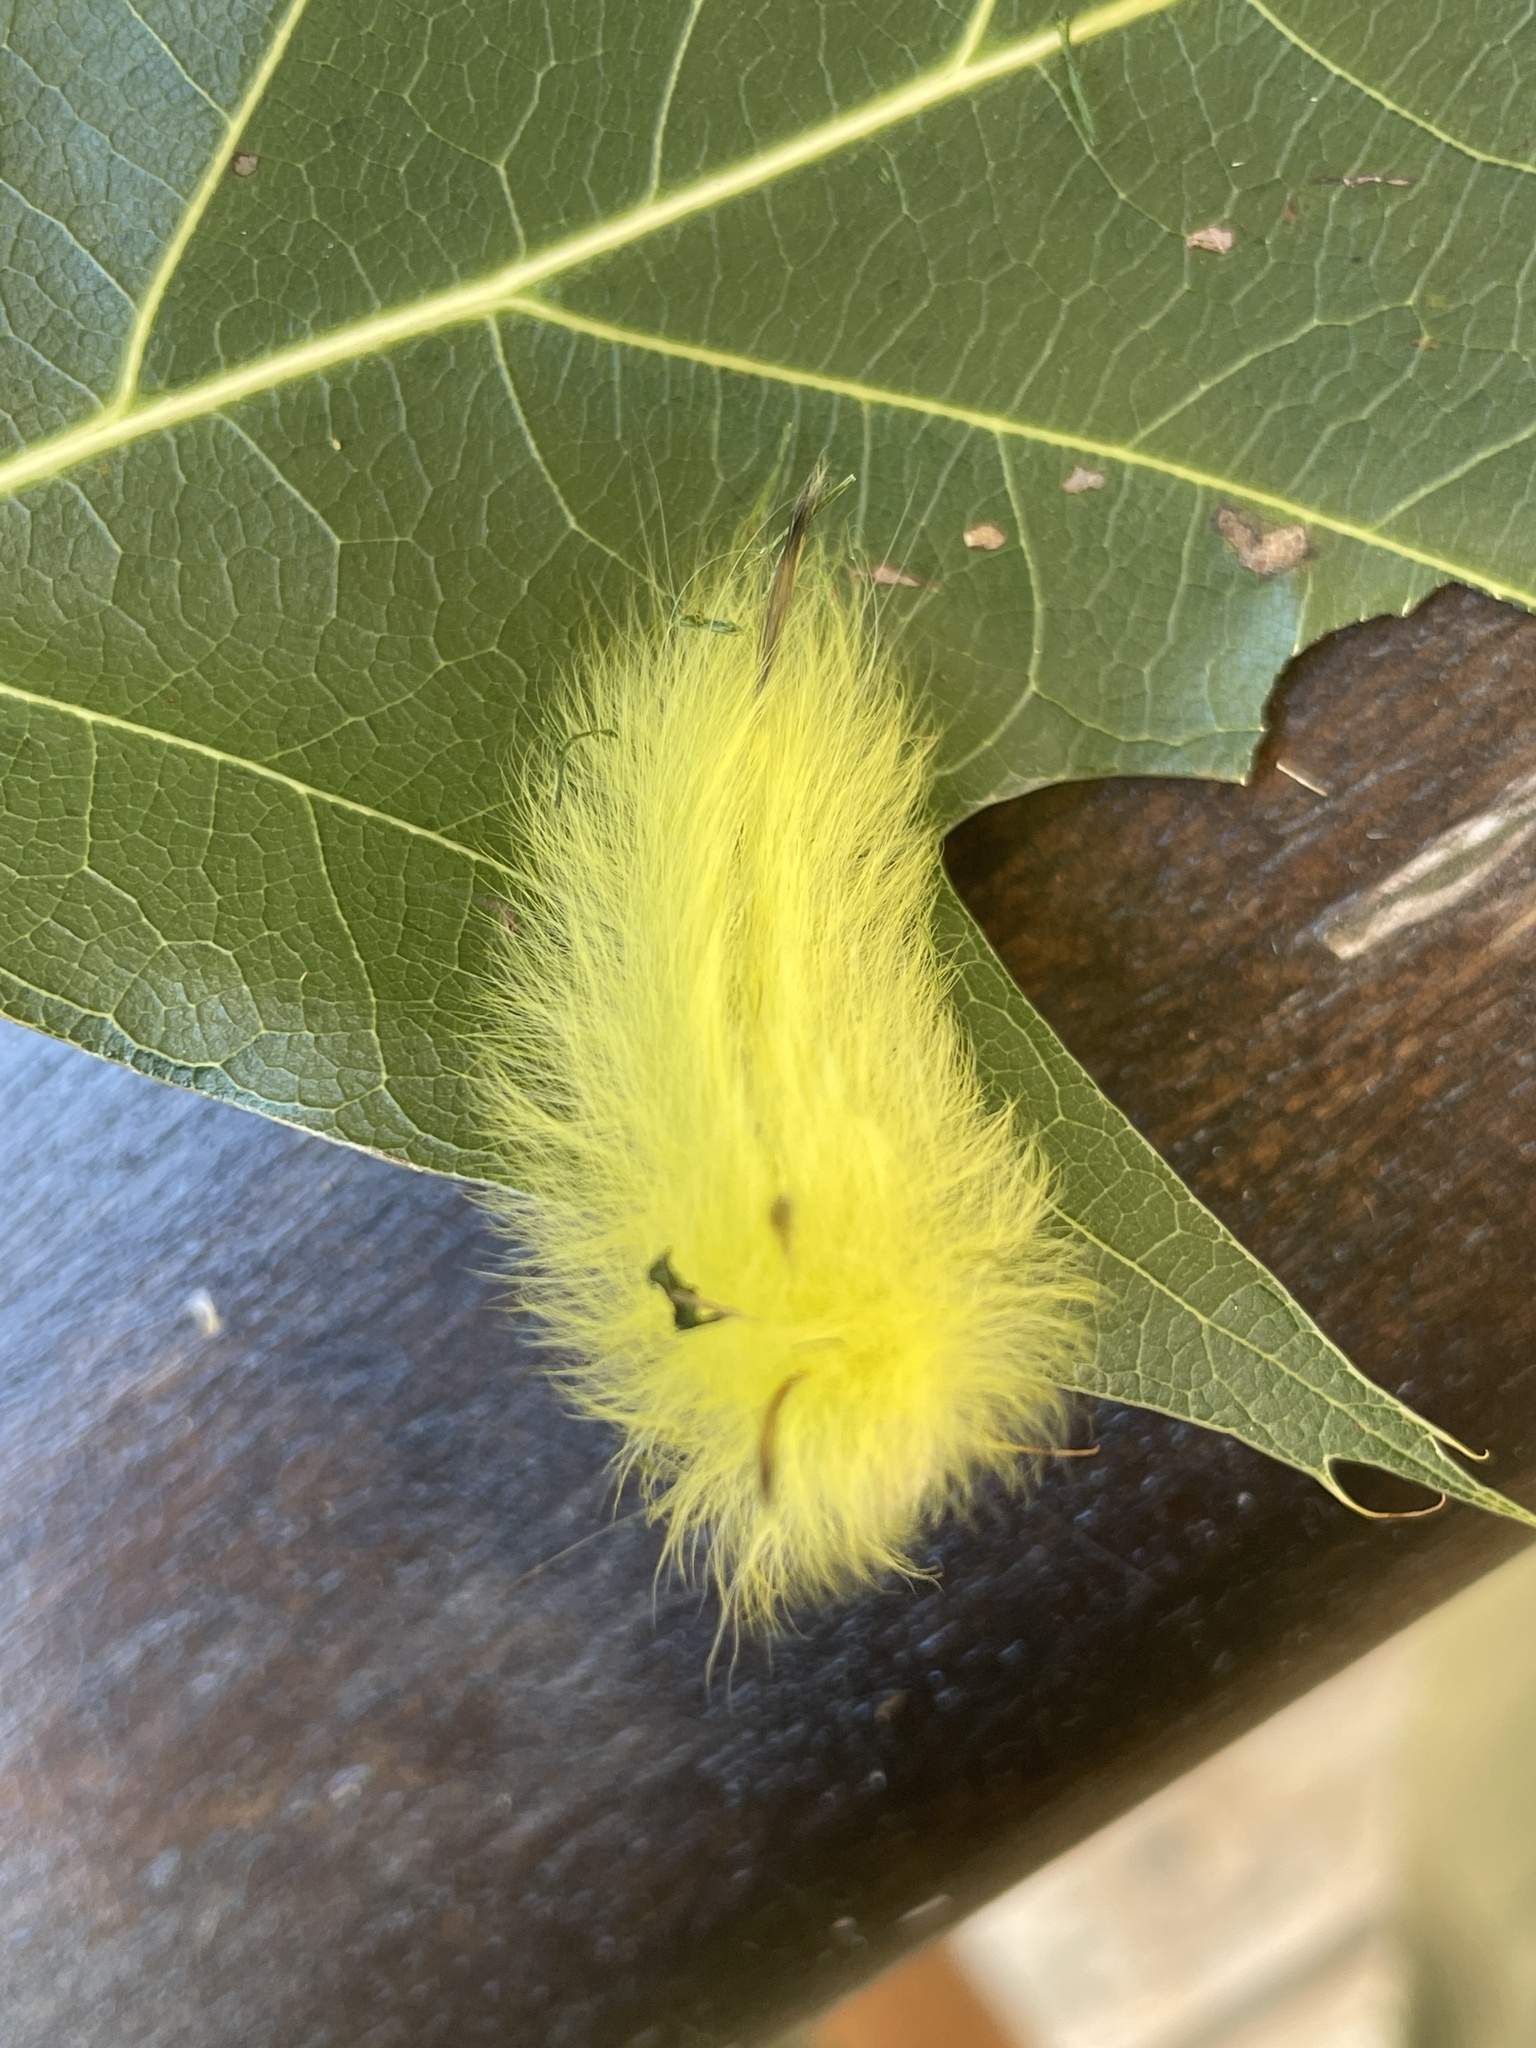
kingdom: Animalia
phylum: Arthropoda
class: Insecta
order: Lepidoptera
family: Apatelodidae
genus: Hygrochroa
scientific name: Hygrochroa Apatelodes torrefacta
